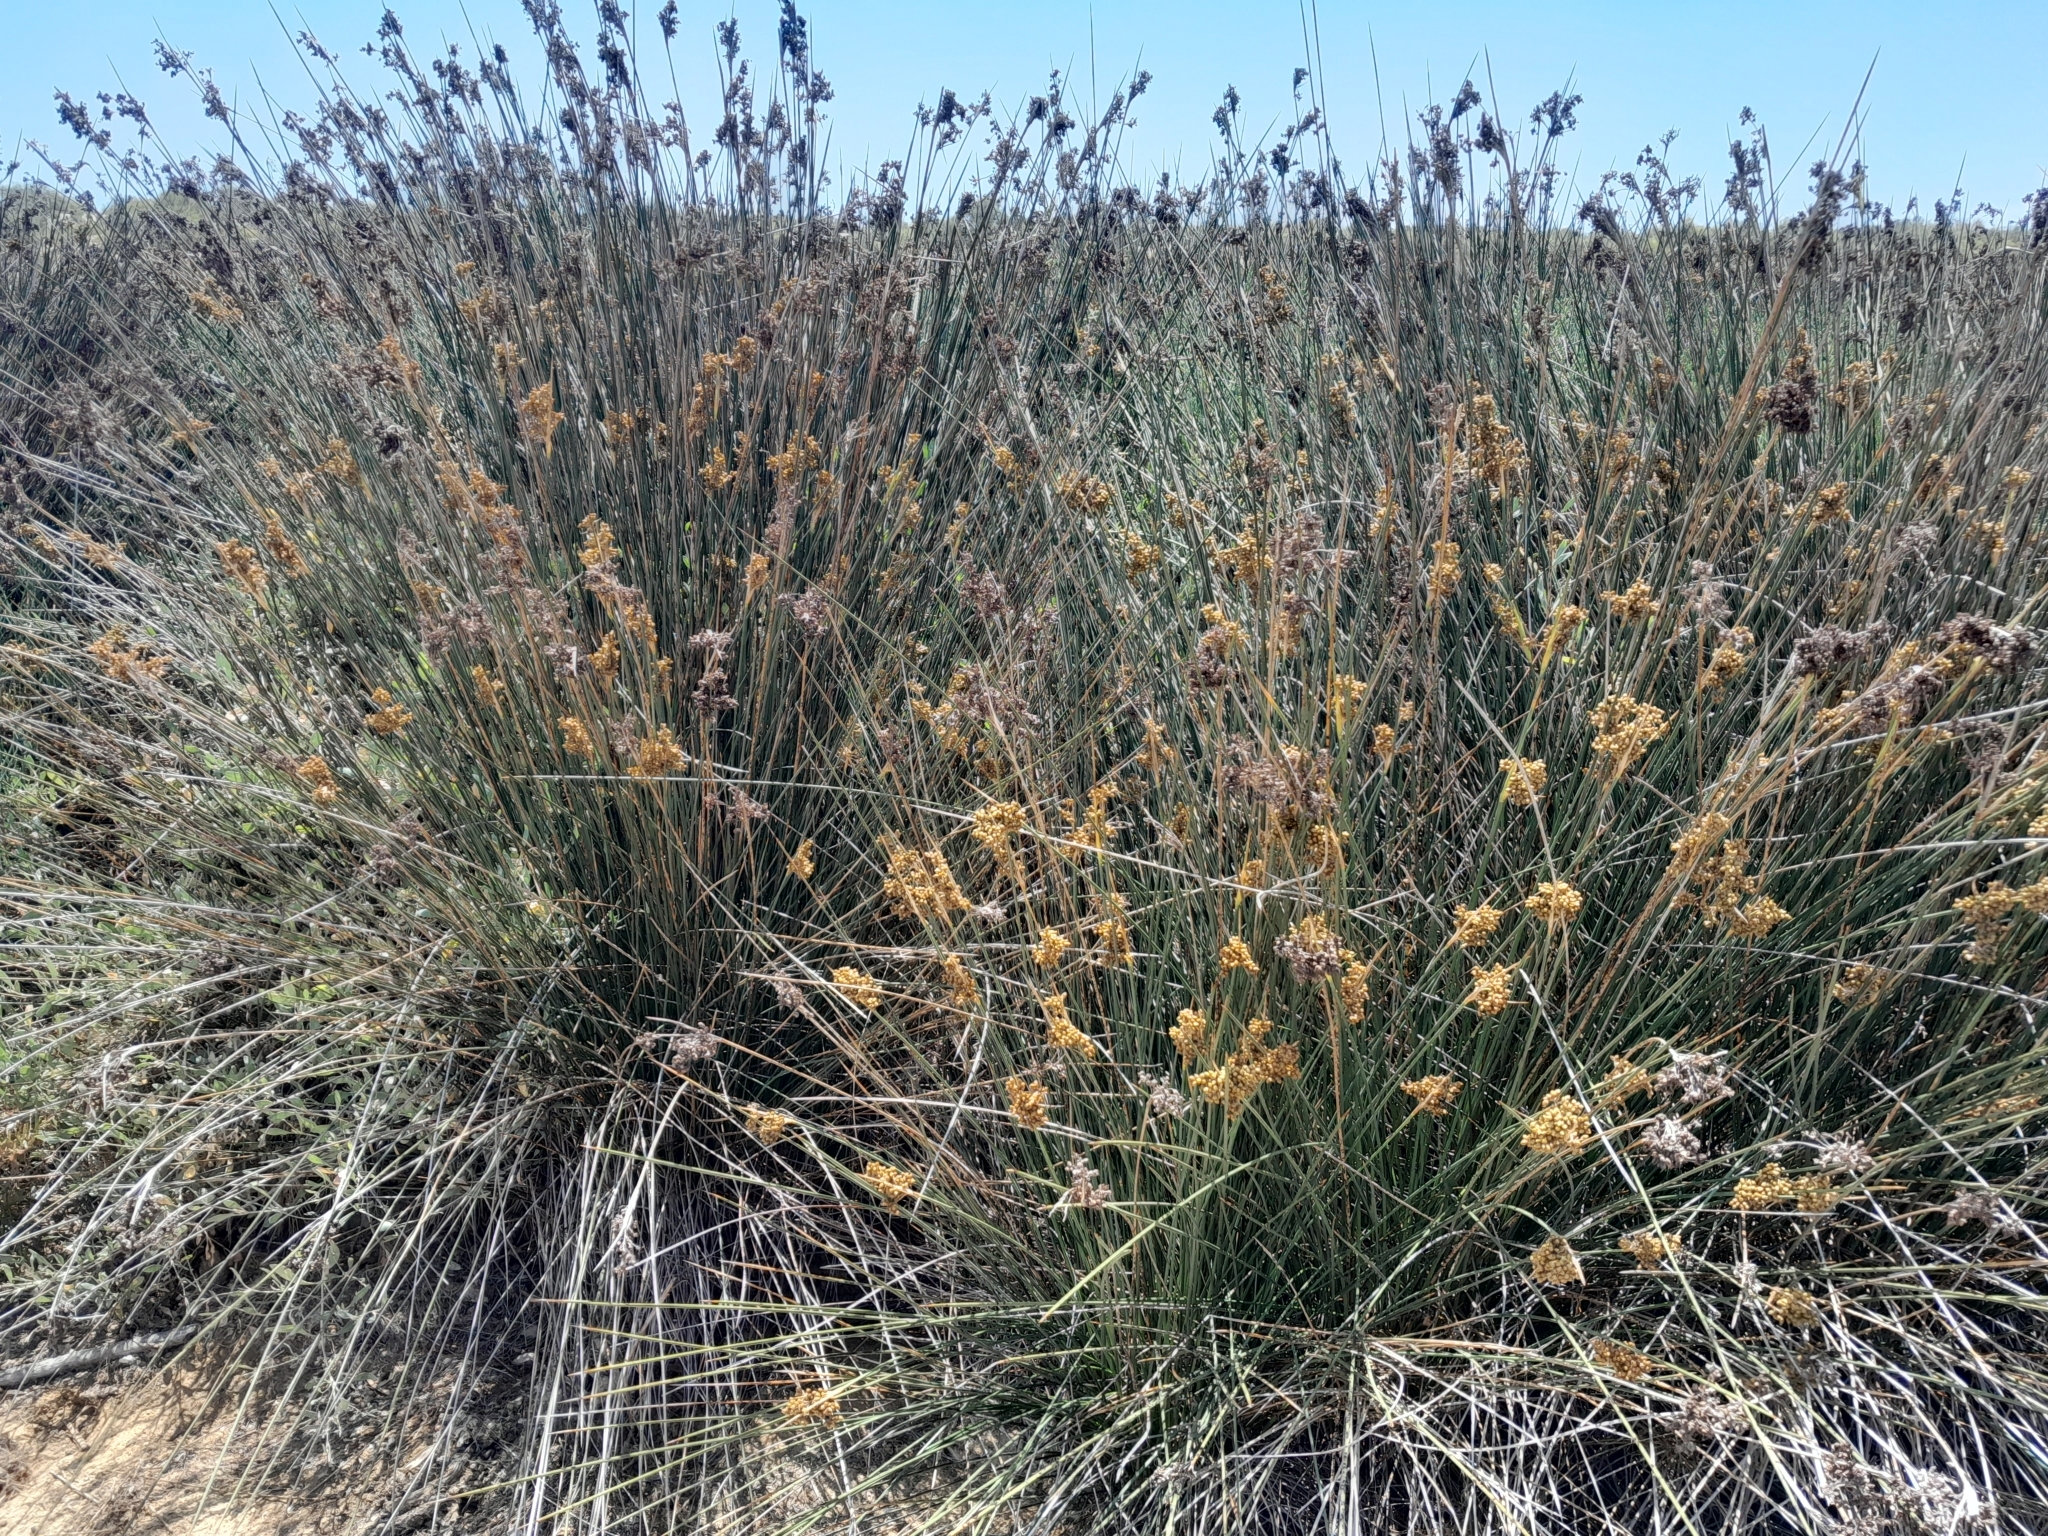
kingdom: Plantae
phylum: Tracheophyta
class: Liliopsida
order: Poales
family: Juncaceae
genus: Juncus
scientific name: Juncus acutus
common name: Sharp rush
